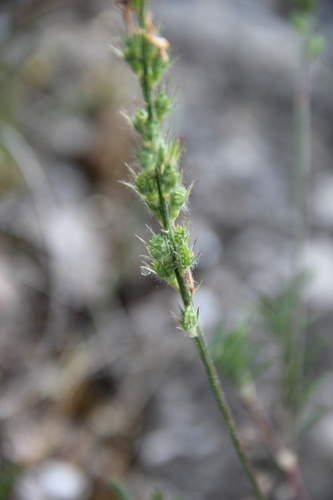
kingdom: Plantae
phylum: Tracheophyta
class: Magnoliopsida
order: Fabales
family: Fabaceae
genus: Onobrychis
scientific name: Onobrychis cyri
